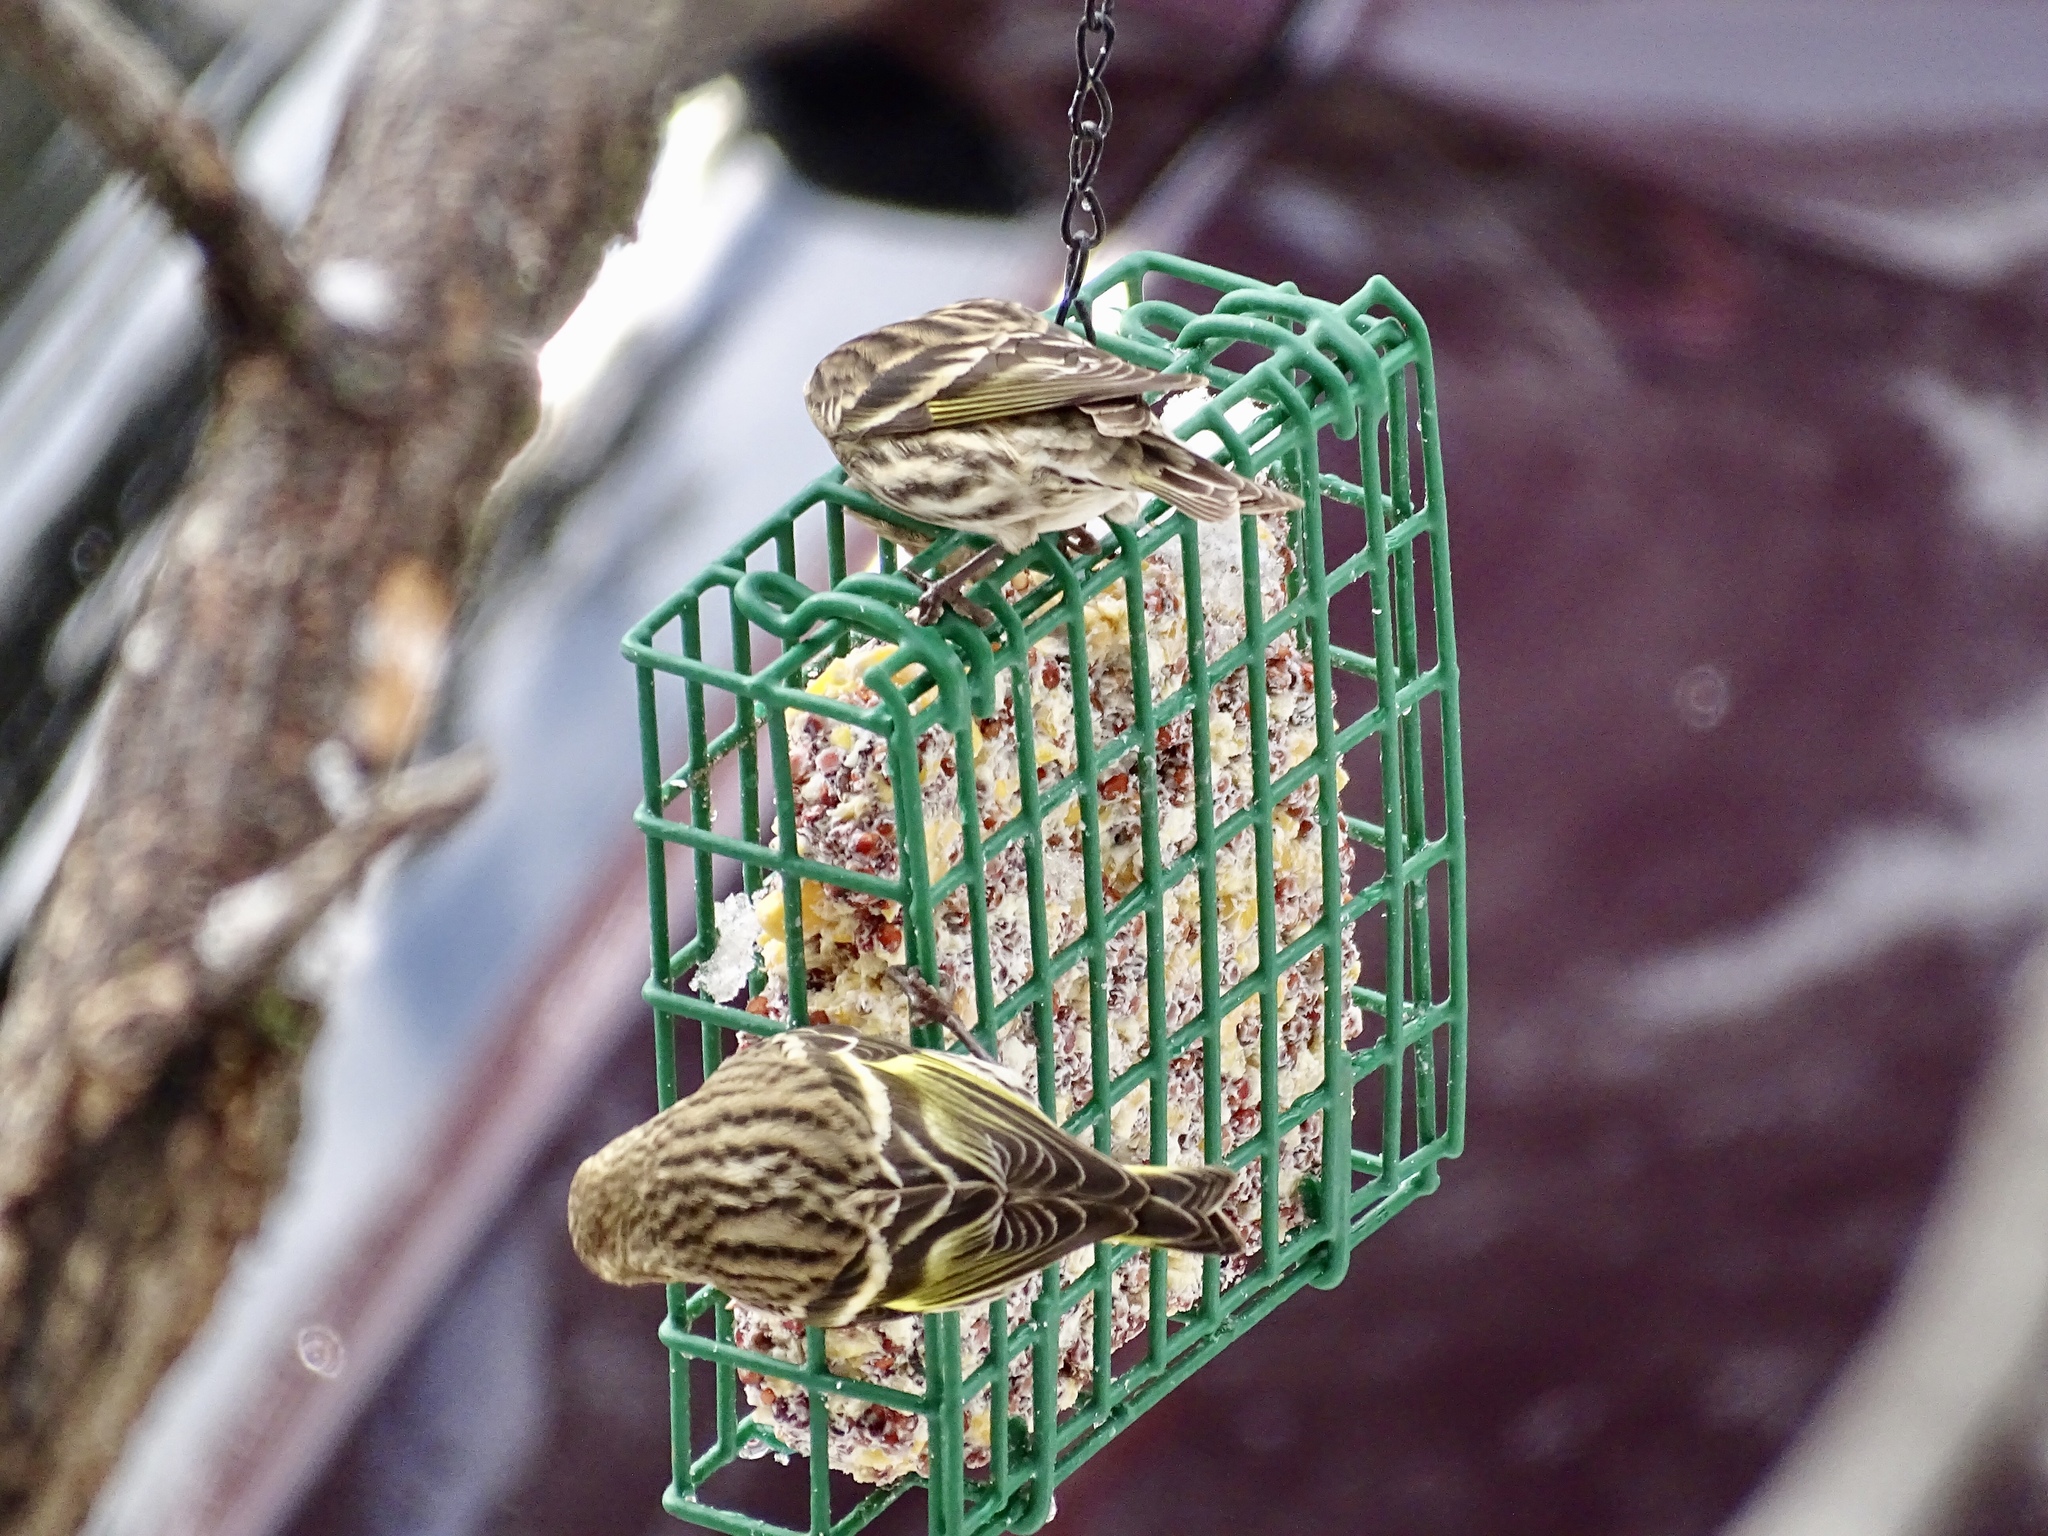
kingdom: Animalia
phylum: Chordata
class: Aves
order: Passeriformes
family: Fringillidae
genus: Spinus
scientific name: Spinus pinus
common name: Pine siskin
